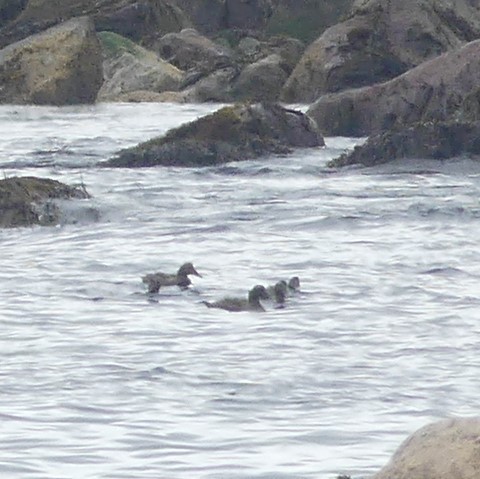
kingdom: Animalia
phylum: Chordata
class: Aves
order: Anseriformes
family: Anatidae
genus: Somateria
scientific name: Somateria mollissima
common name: Common eider
